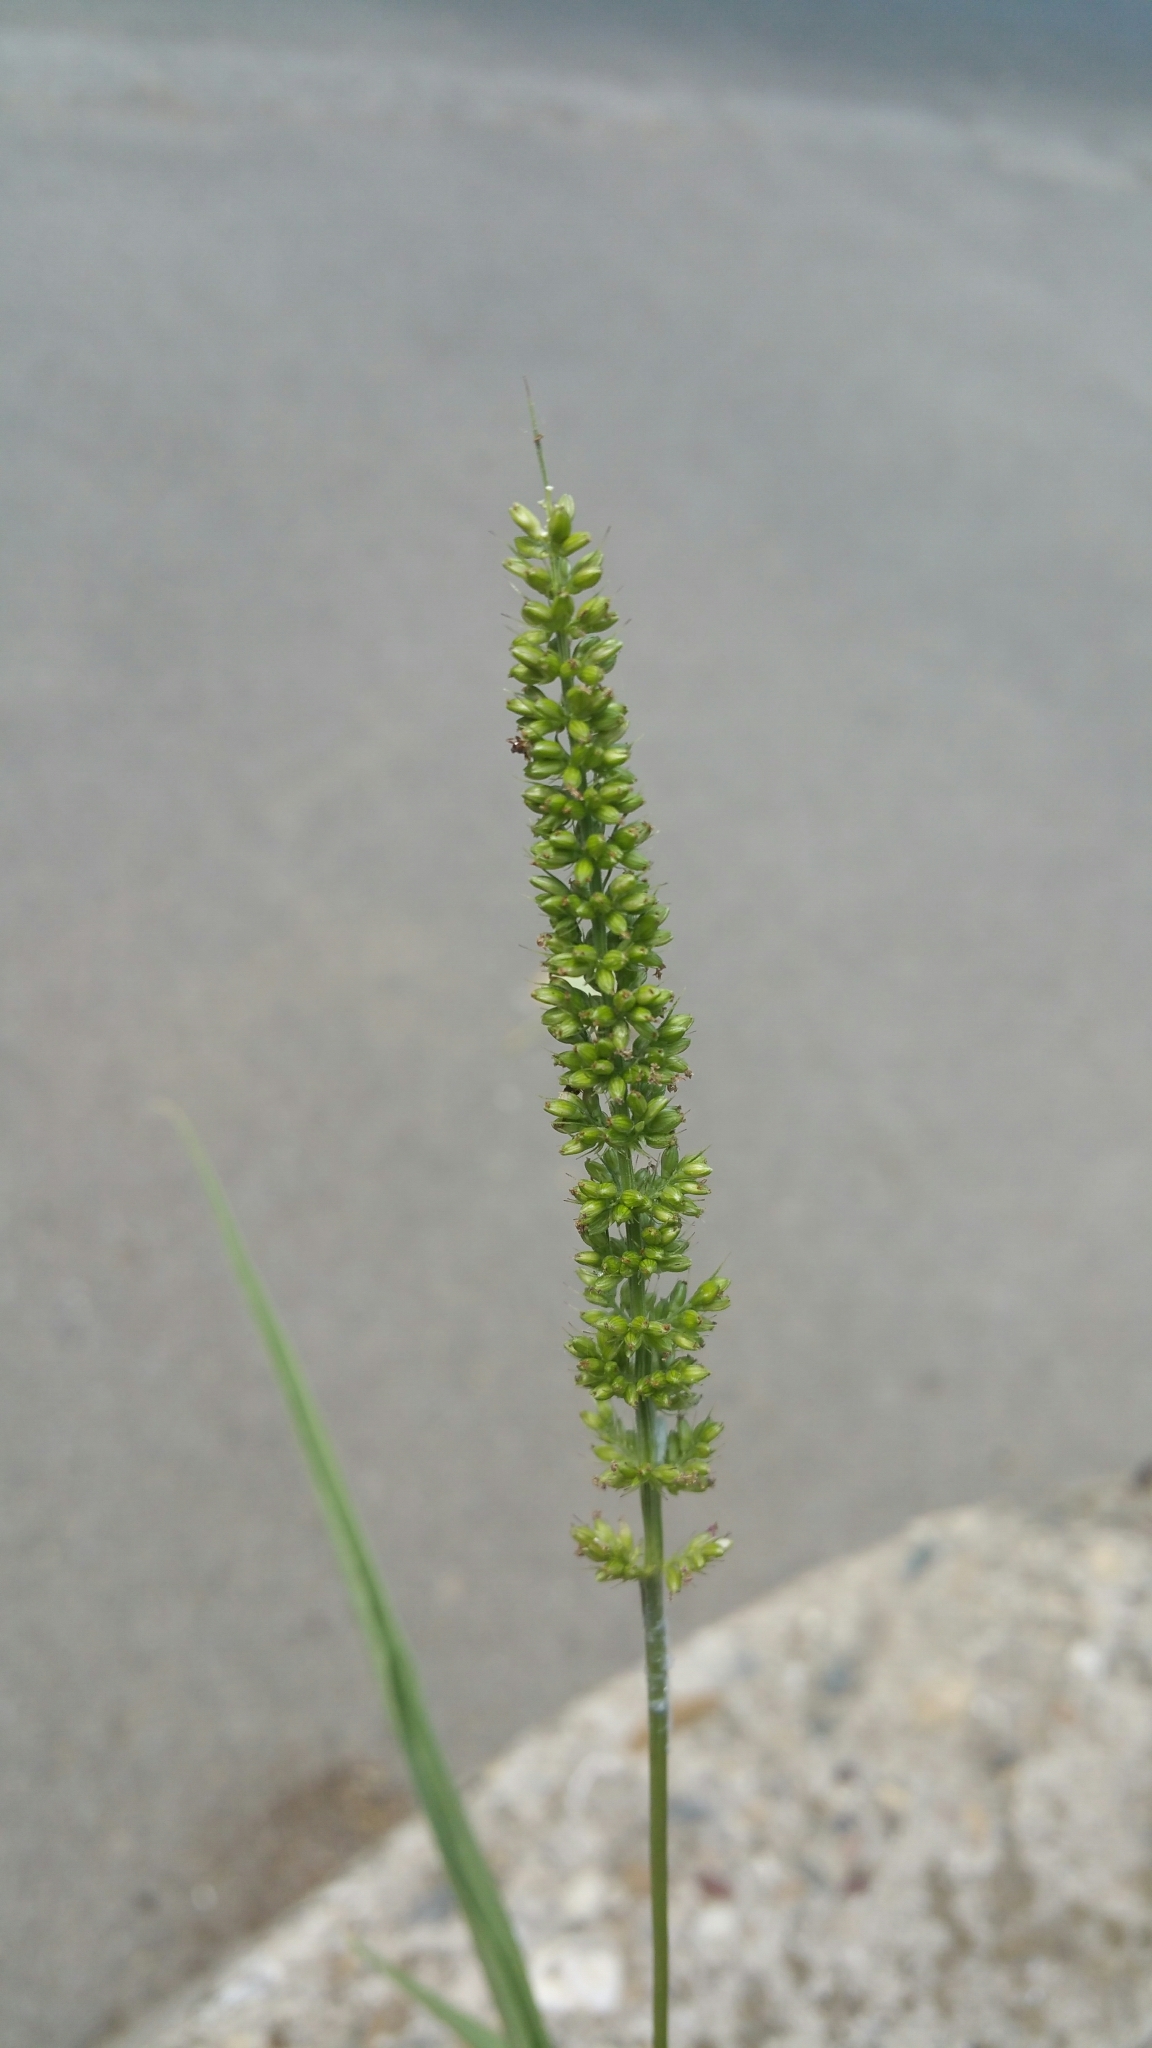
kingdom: Plantae
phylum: Tracheophyta
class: Liliopsida
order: Poales
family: Poaceae
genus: Setaria
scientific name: Setaria verticillata
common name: Hooked bristlegrass
